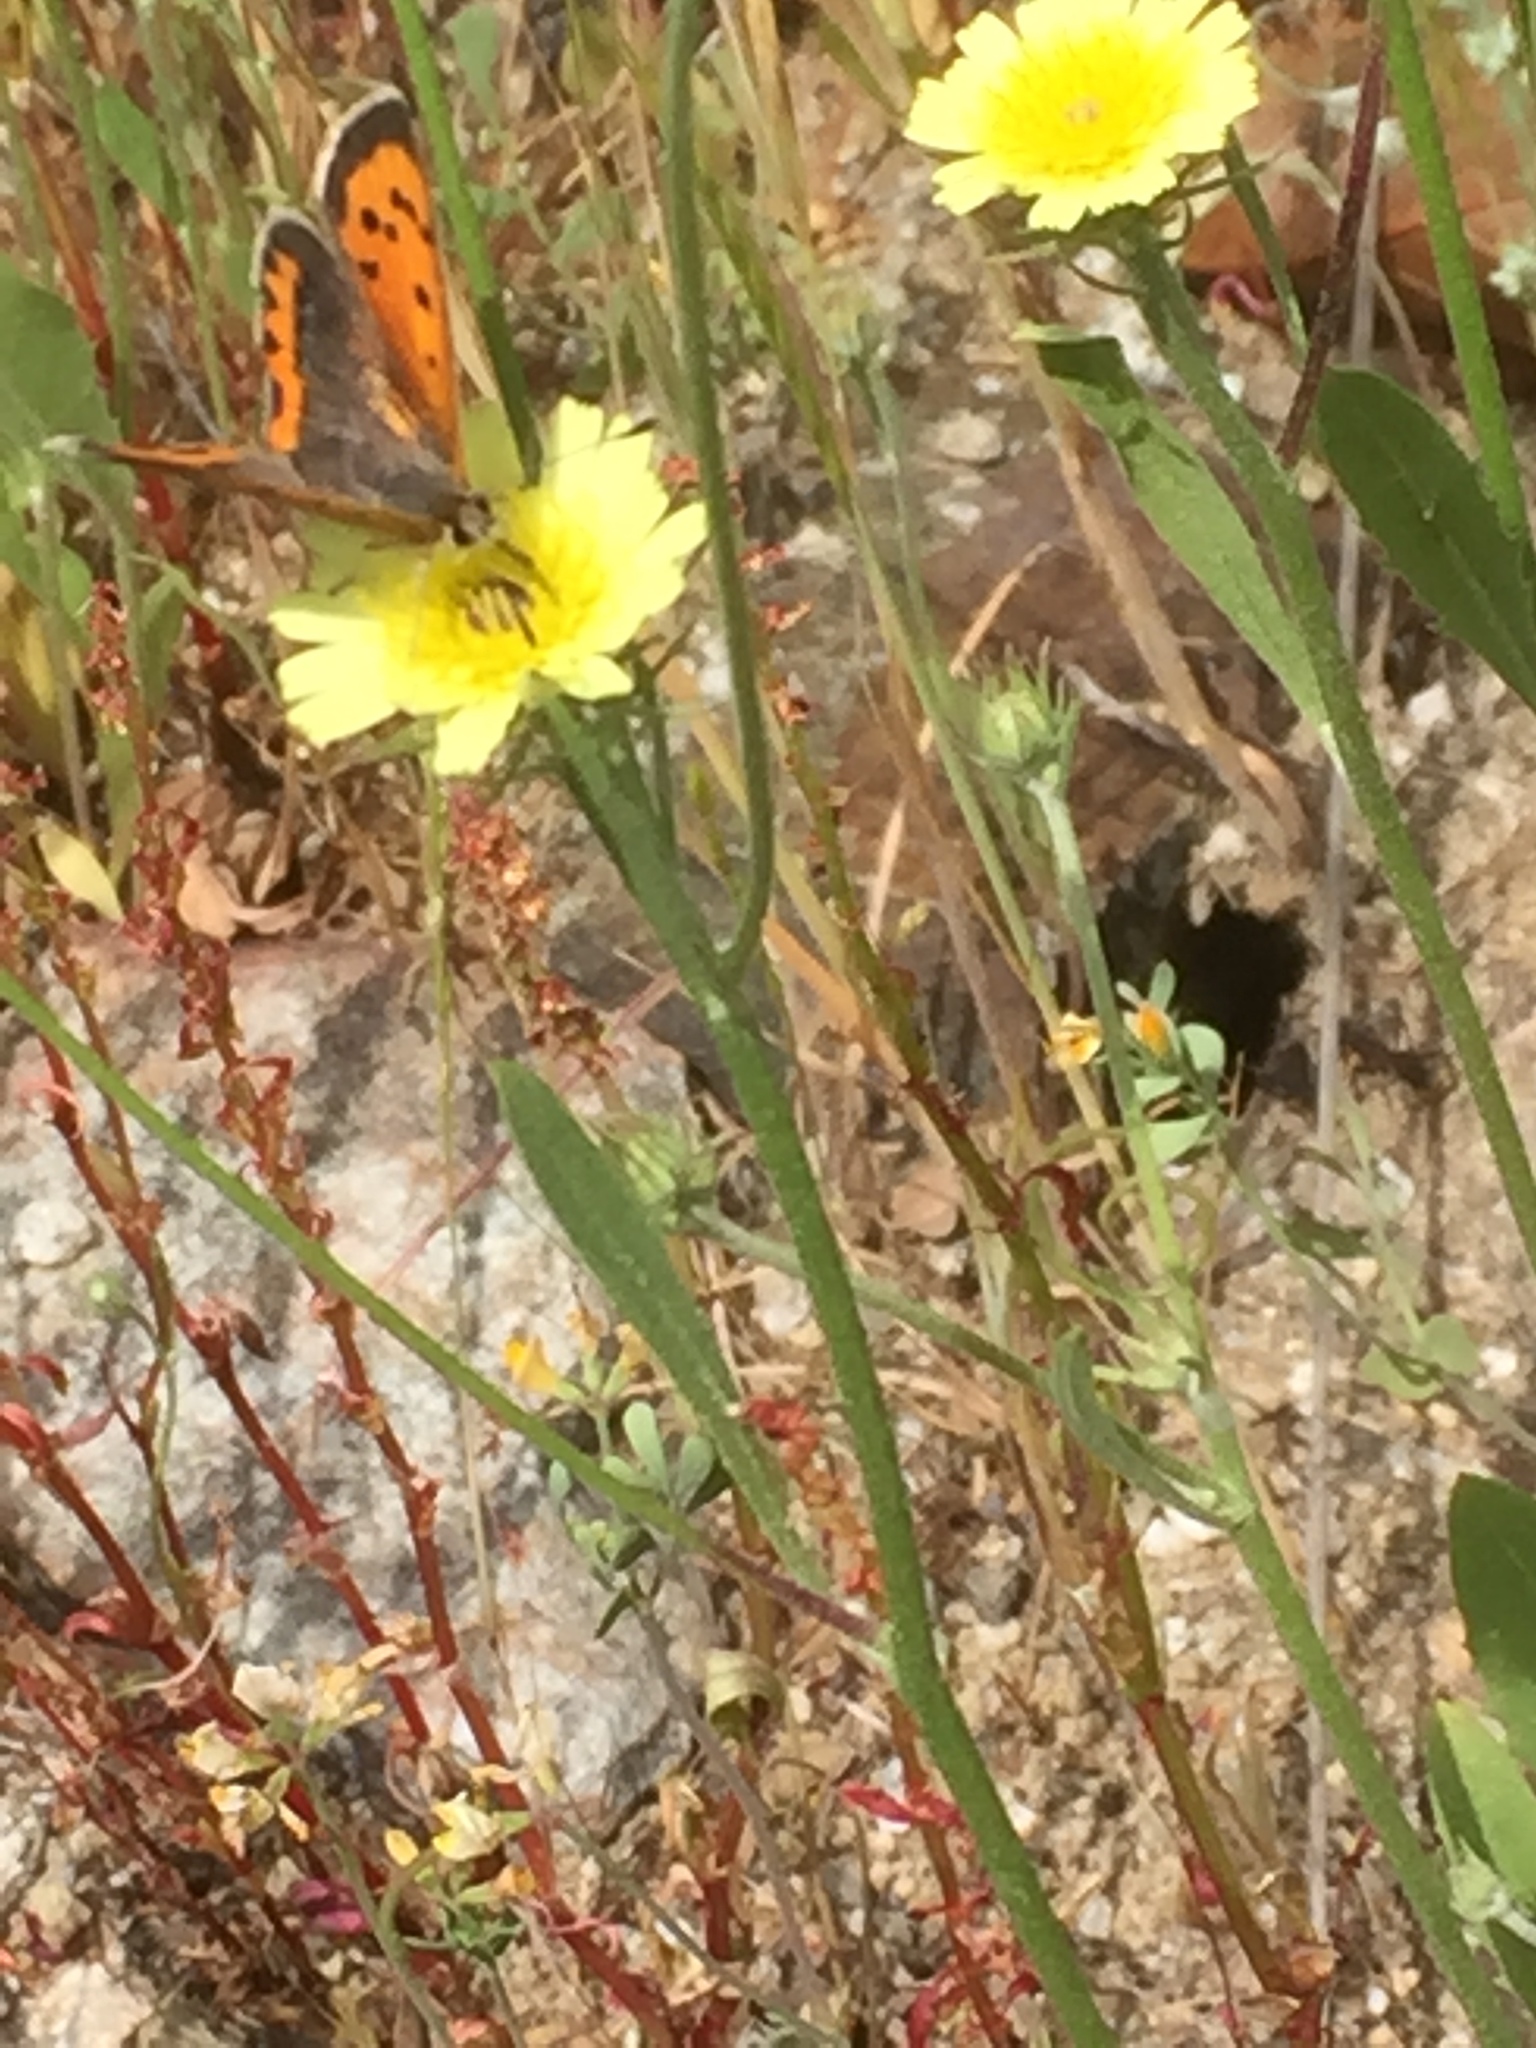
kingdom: Animalia
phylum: Arthropoda
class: Insecta
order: Lepidoptera
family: Lycaenidae
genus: Lycaena
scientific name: Lycaena phlaeas
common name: Small copper
